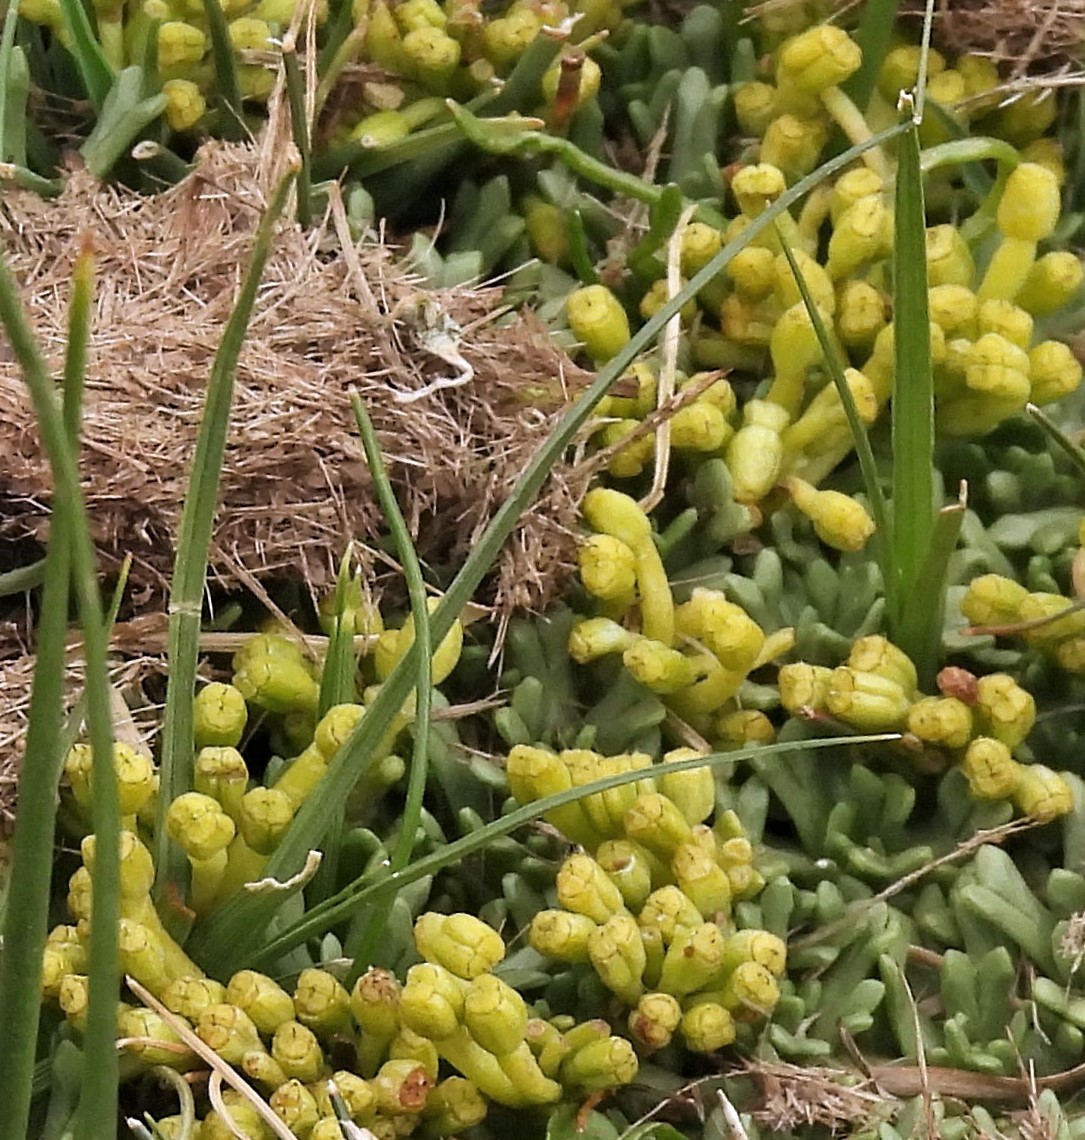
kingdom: Plantae
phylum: Tracheophyta
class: Magnoliopsida
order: Apiales
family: Apiaceae
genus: Azorella
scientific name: Azorella trifurcata
